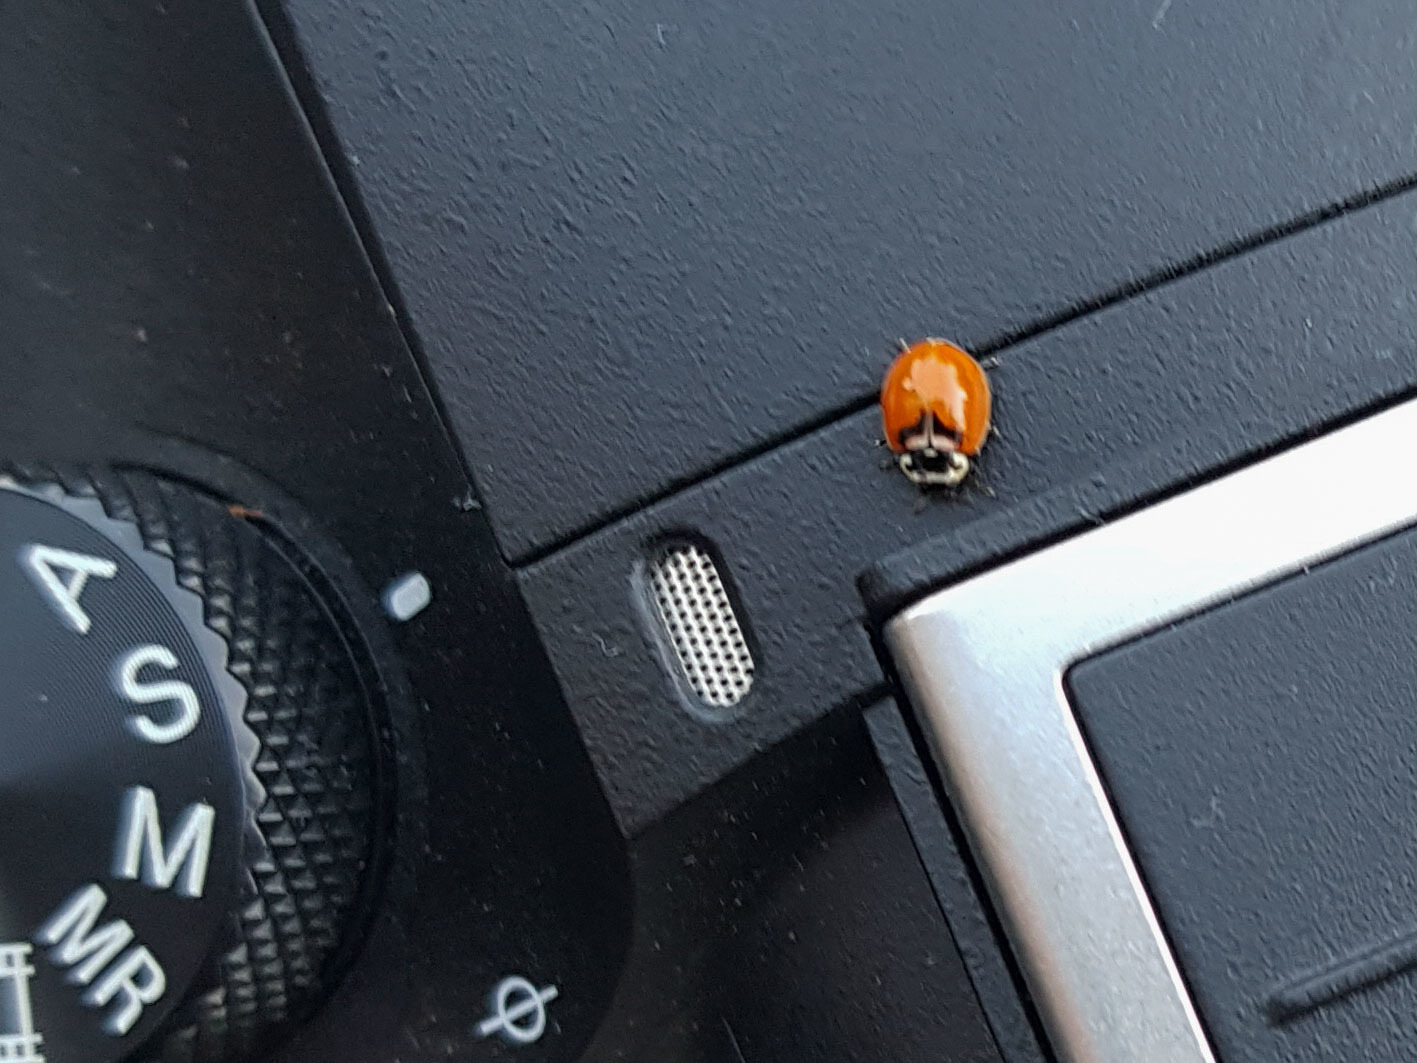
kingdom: Animalia
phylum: Arthropoda
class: Insecta
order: Coleoptera
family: Coccinellidae
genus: Adalia
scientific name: Adalia deficiens
